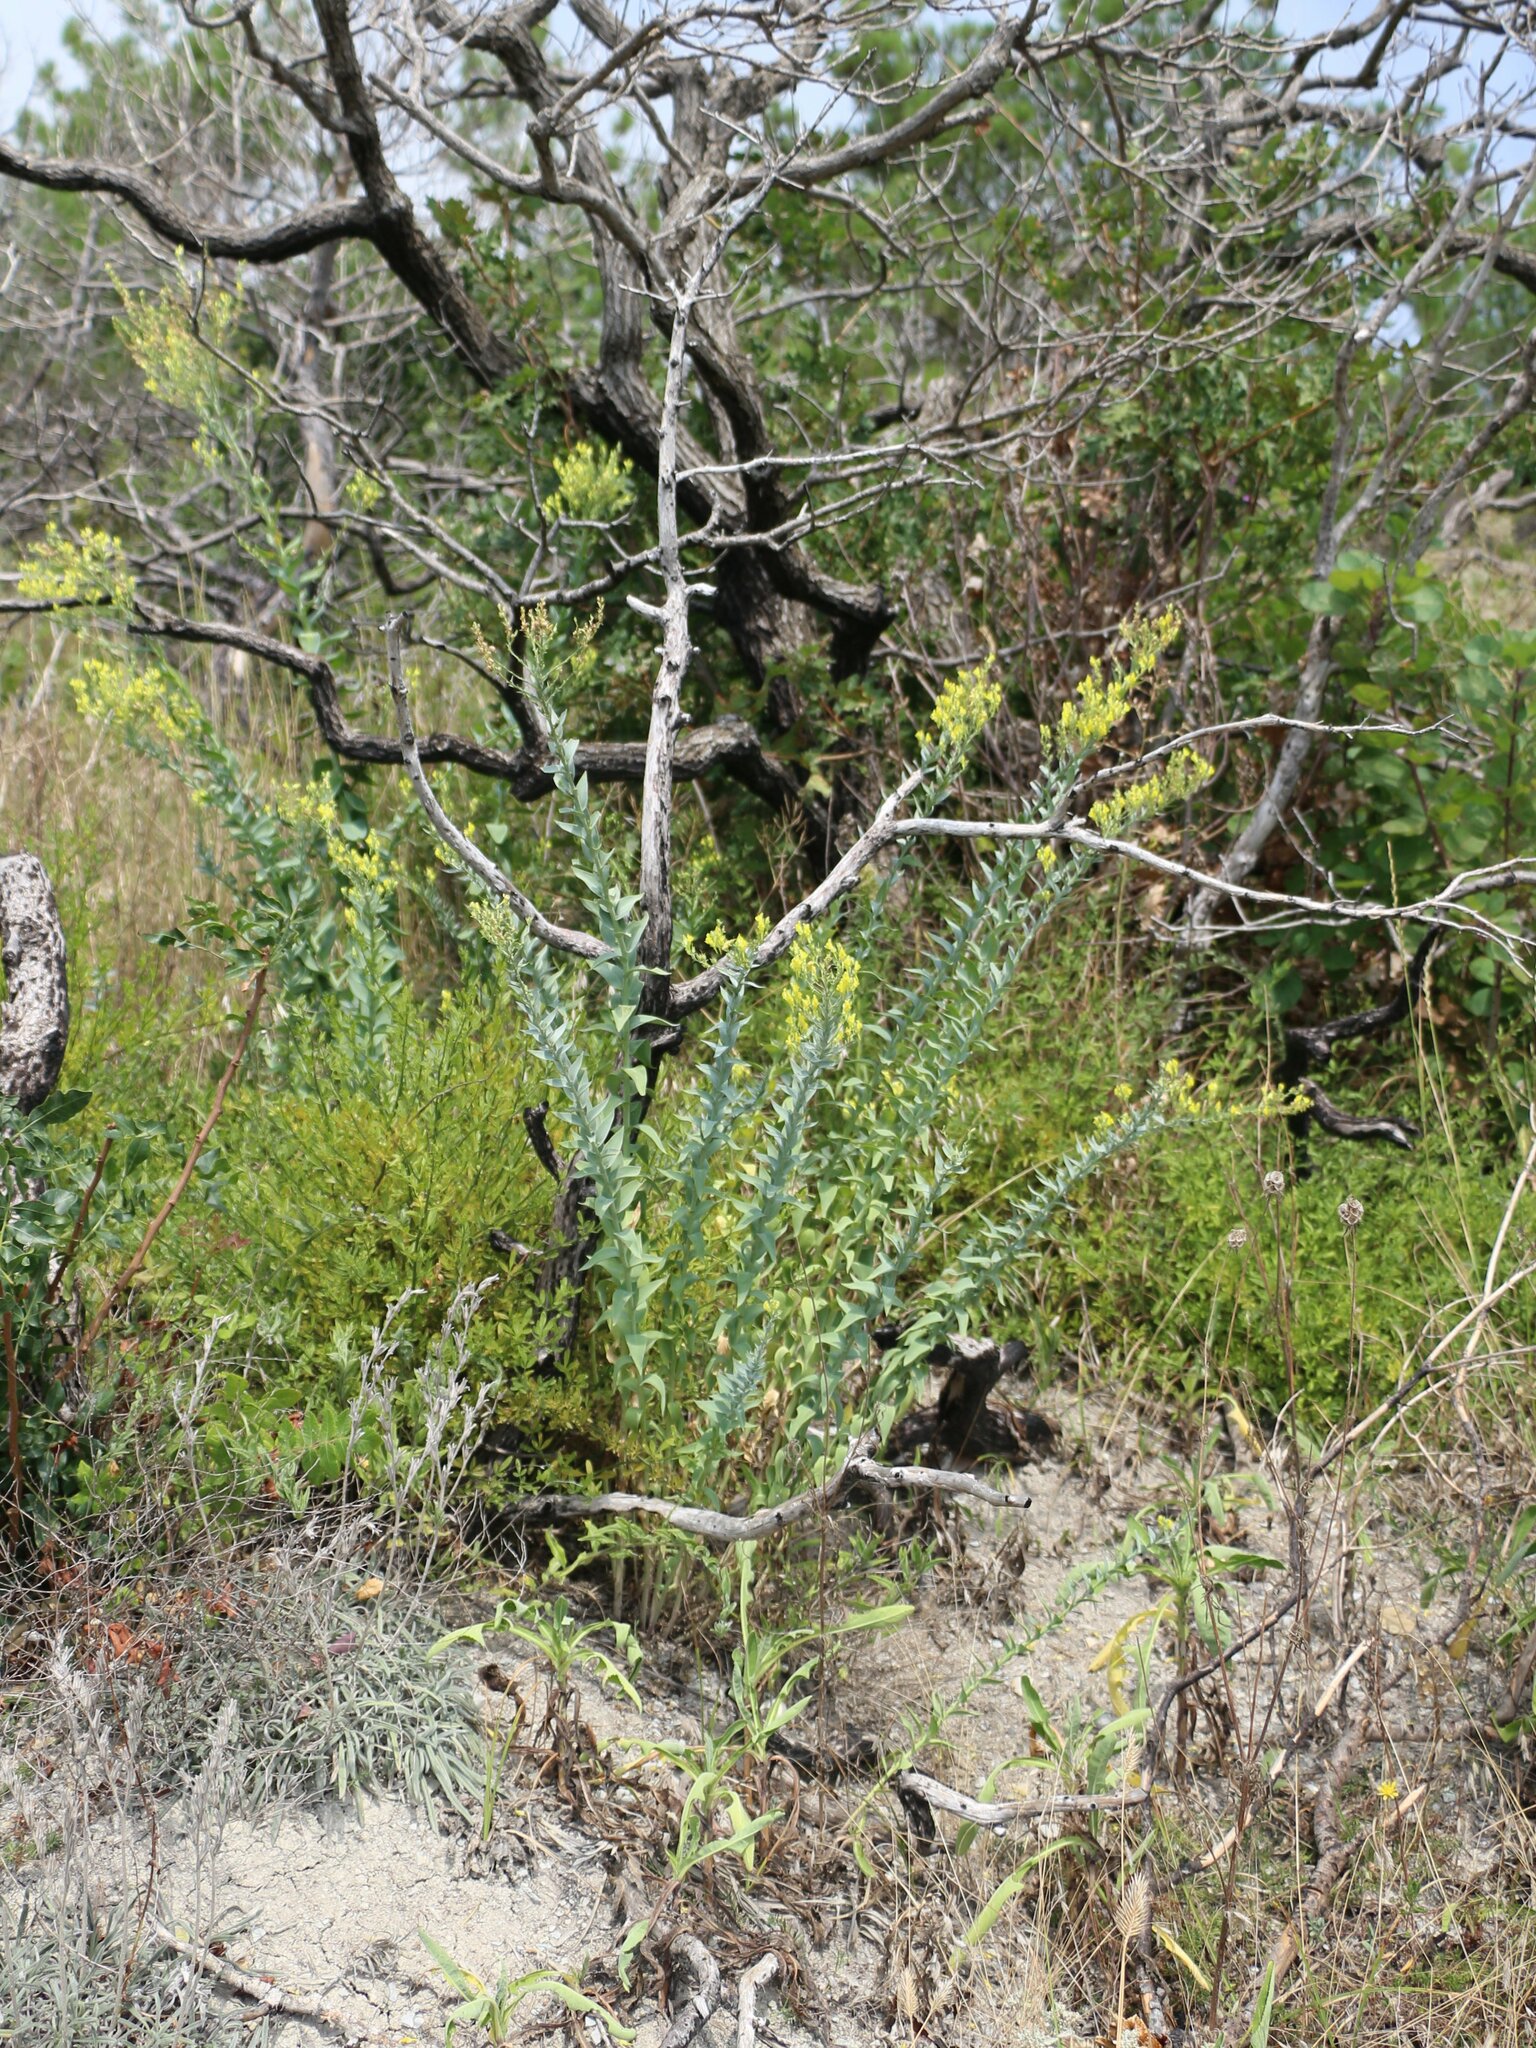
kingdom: Plantae
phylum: Tracheophyta
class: Magnoliopsida
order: Lamiales
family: Plantaginaceae
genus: Linaria
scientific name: Linaria genistifolia
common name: Broomleaf toadflax
